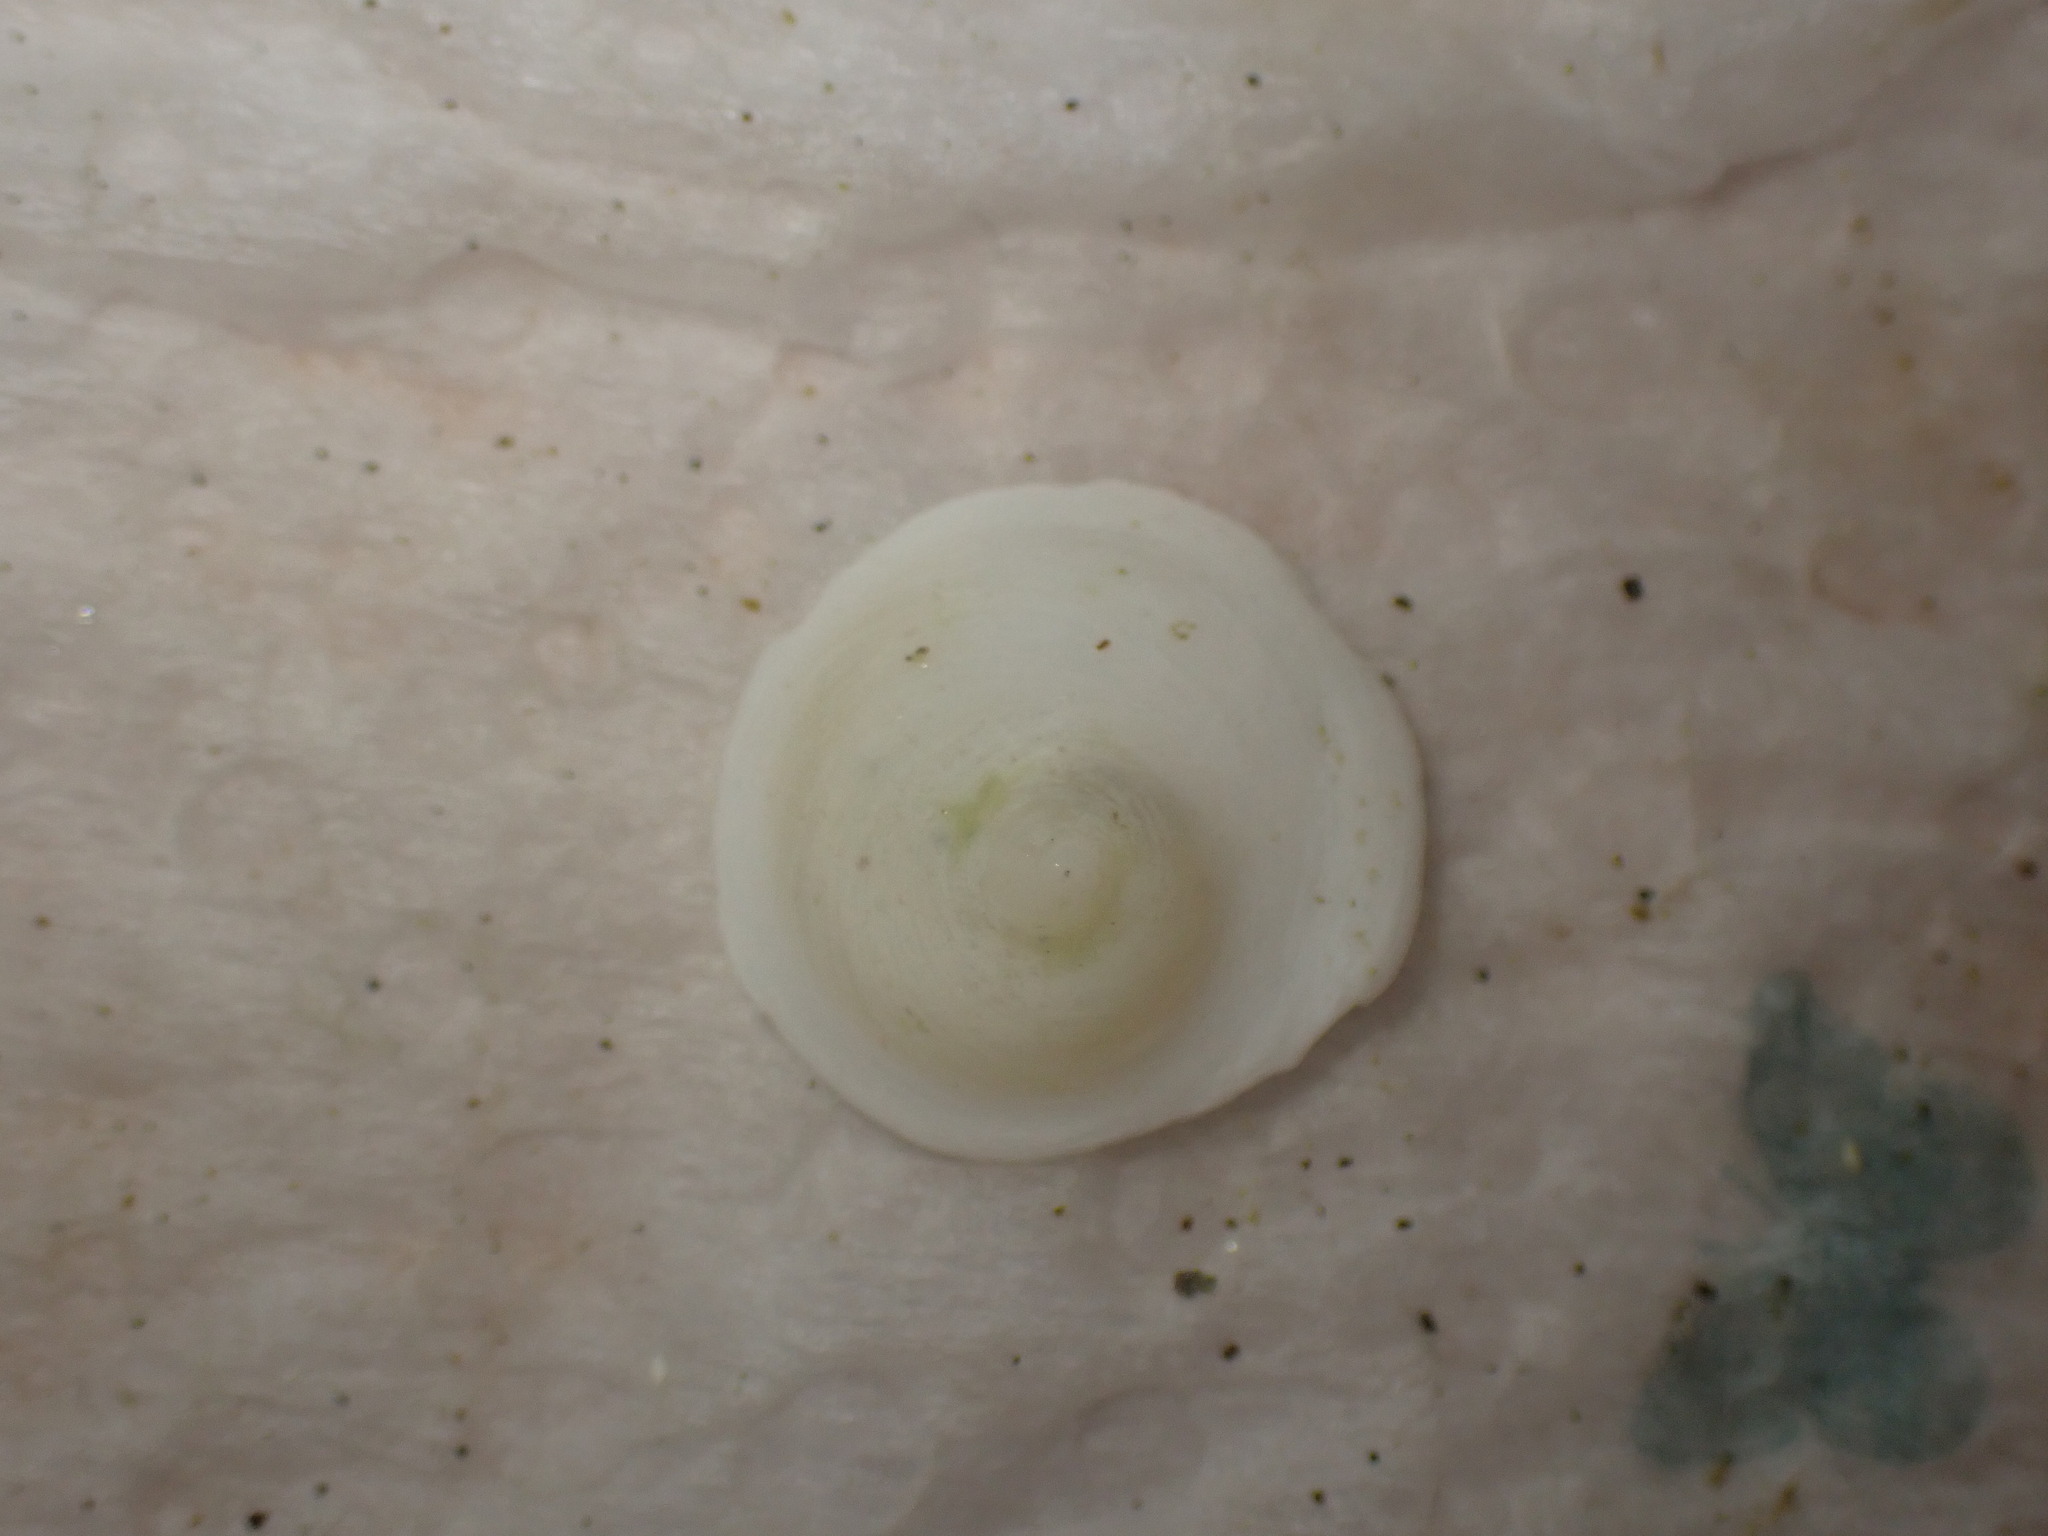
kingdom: Animalia
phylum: Mollusca
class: Gastropoda
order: Littorinimorpha
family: Calyptraeidae
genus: Sigapatella
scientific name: Sigapatella tenuis
